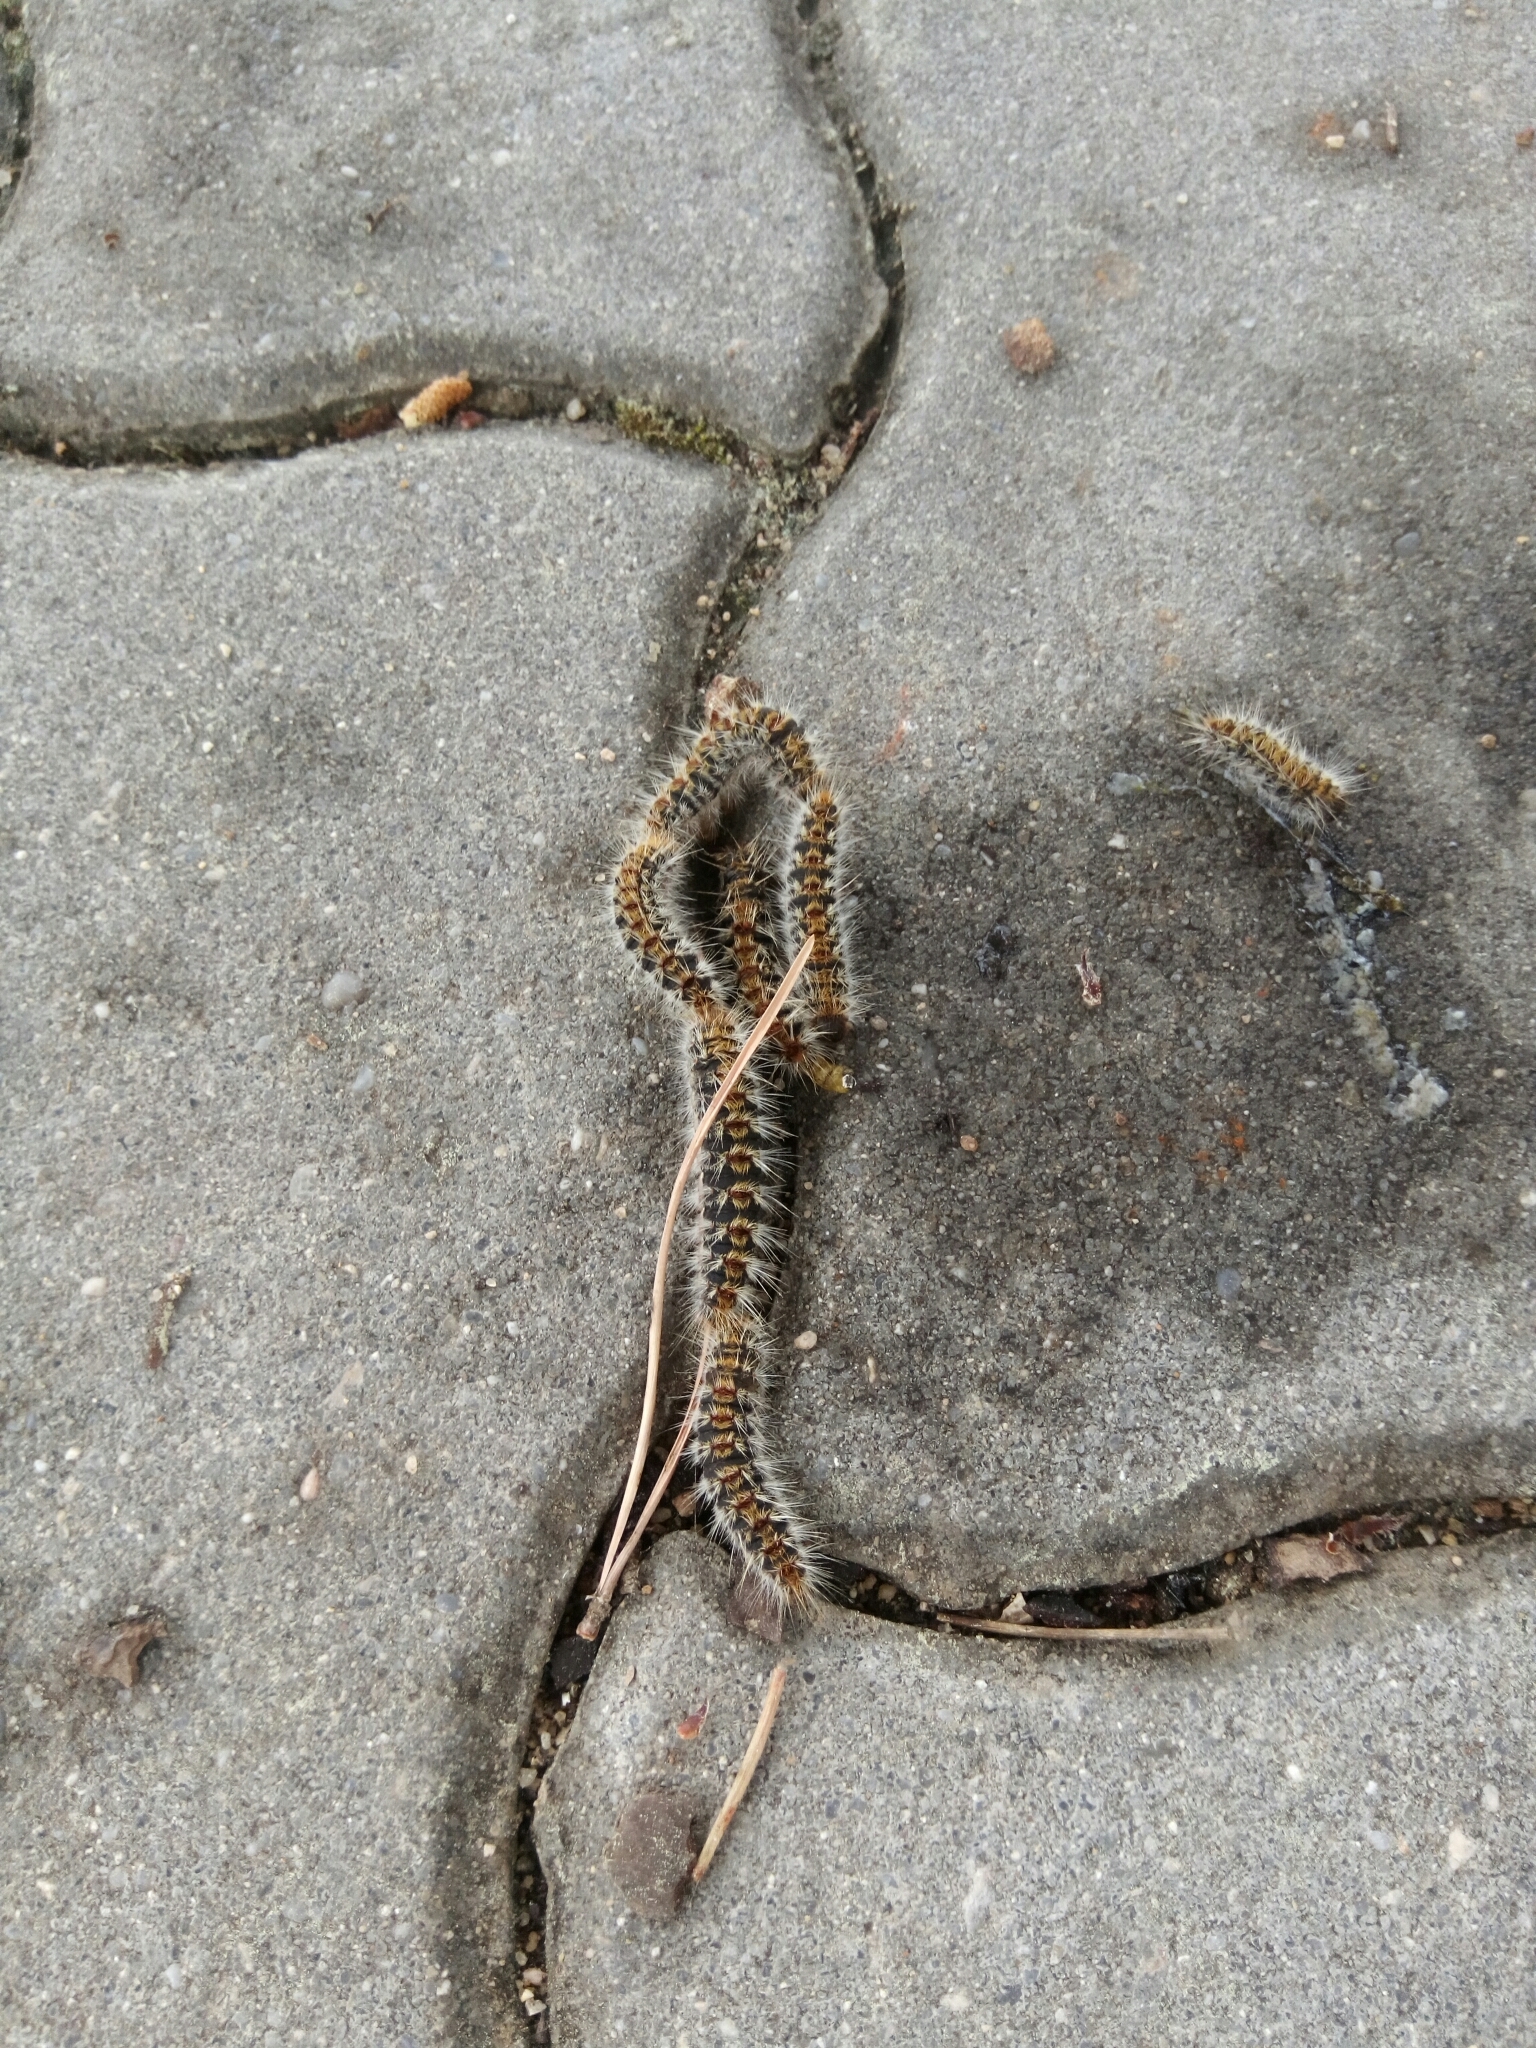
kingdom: Animalia
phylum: Arthropoda
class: Insecta
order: Lepidoptera
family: Notodontidae
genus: Thaumetopoea
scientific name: Thaumetopoea pityocampa
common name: Pine processionary
